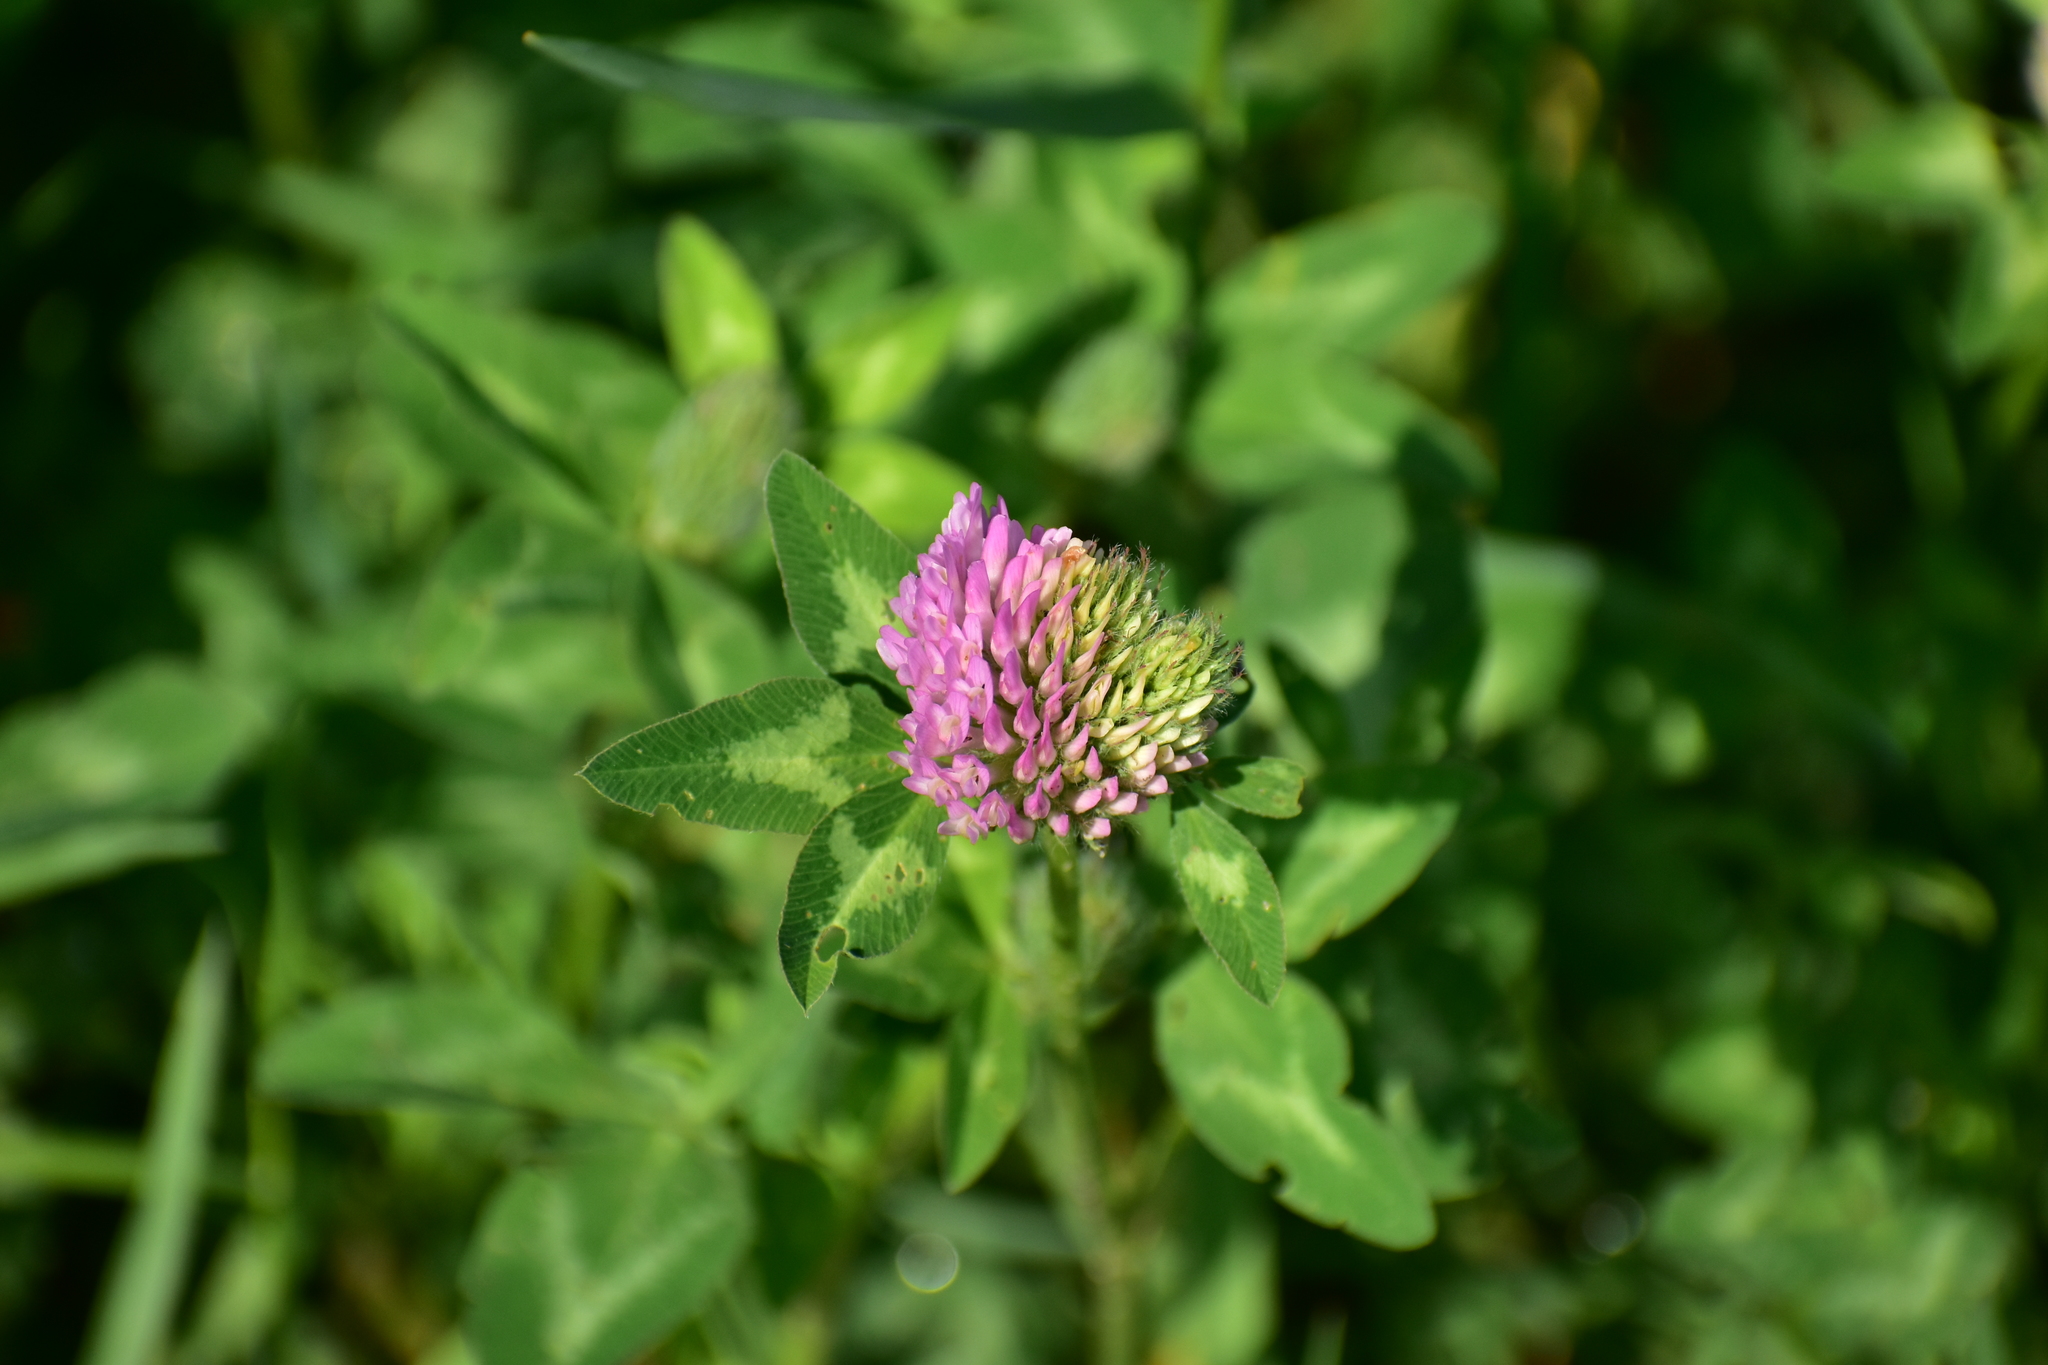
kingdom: Plantae
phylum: Tracheophyta
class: Magnoliopsida
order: Fabales
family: Fabaceae
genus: Trifolium
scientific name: Trifolium pratense
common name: Red clover
